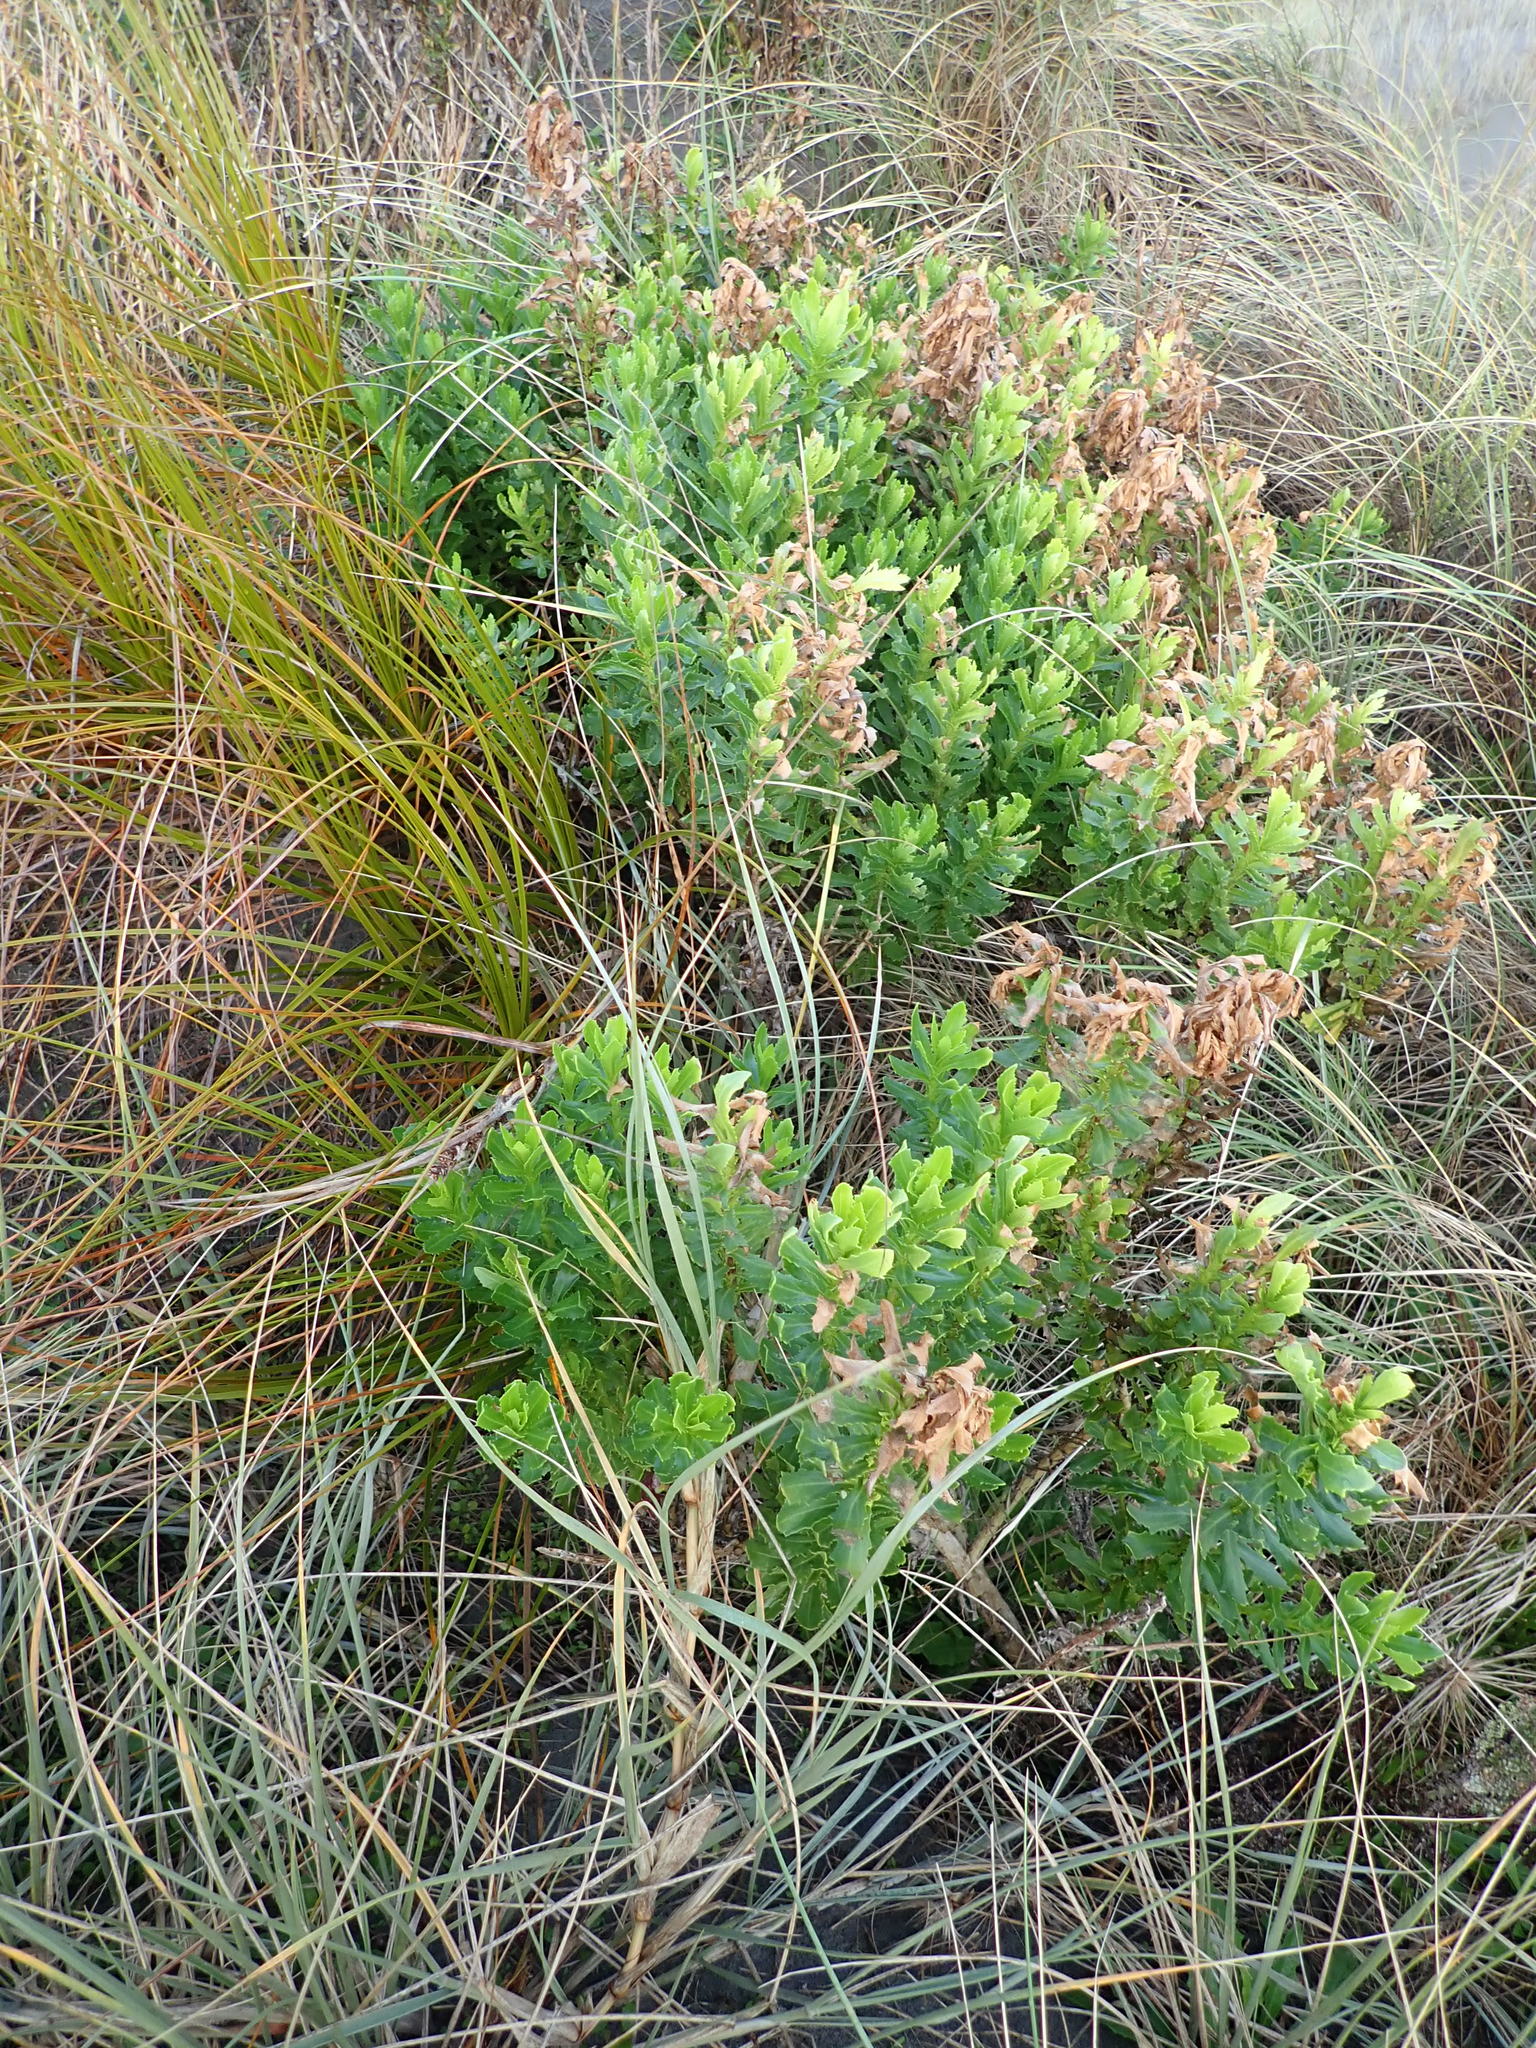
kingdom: Plantae
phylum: Tracheophyta
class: Magnoliopsida
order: Asterales
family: Asteraceae
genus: Senecio
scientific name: Senecio glastifolius
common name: Woad-leaved ragwort
